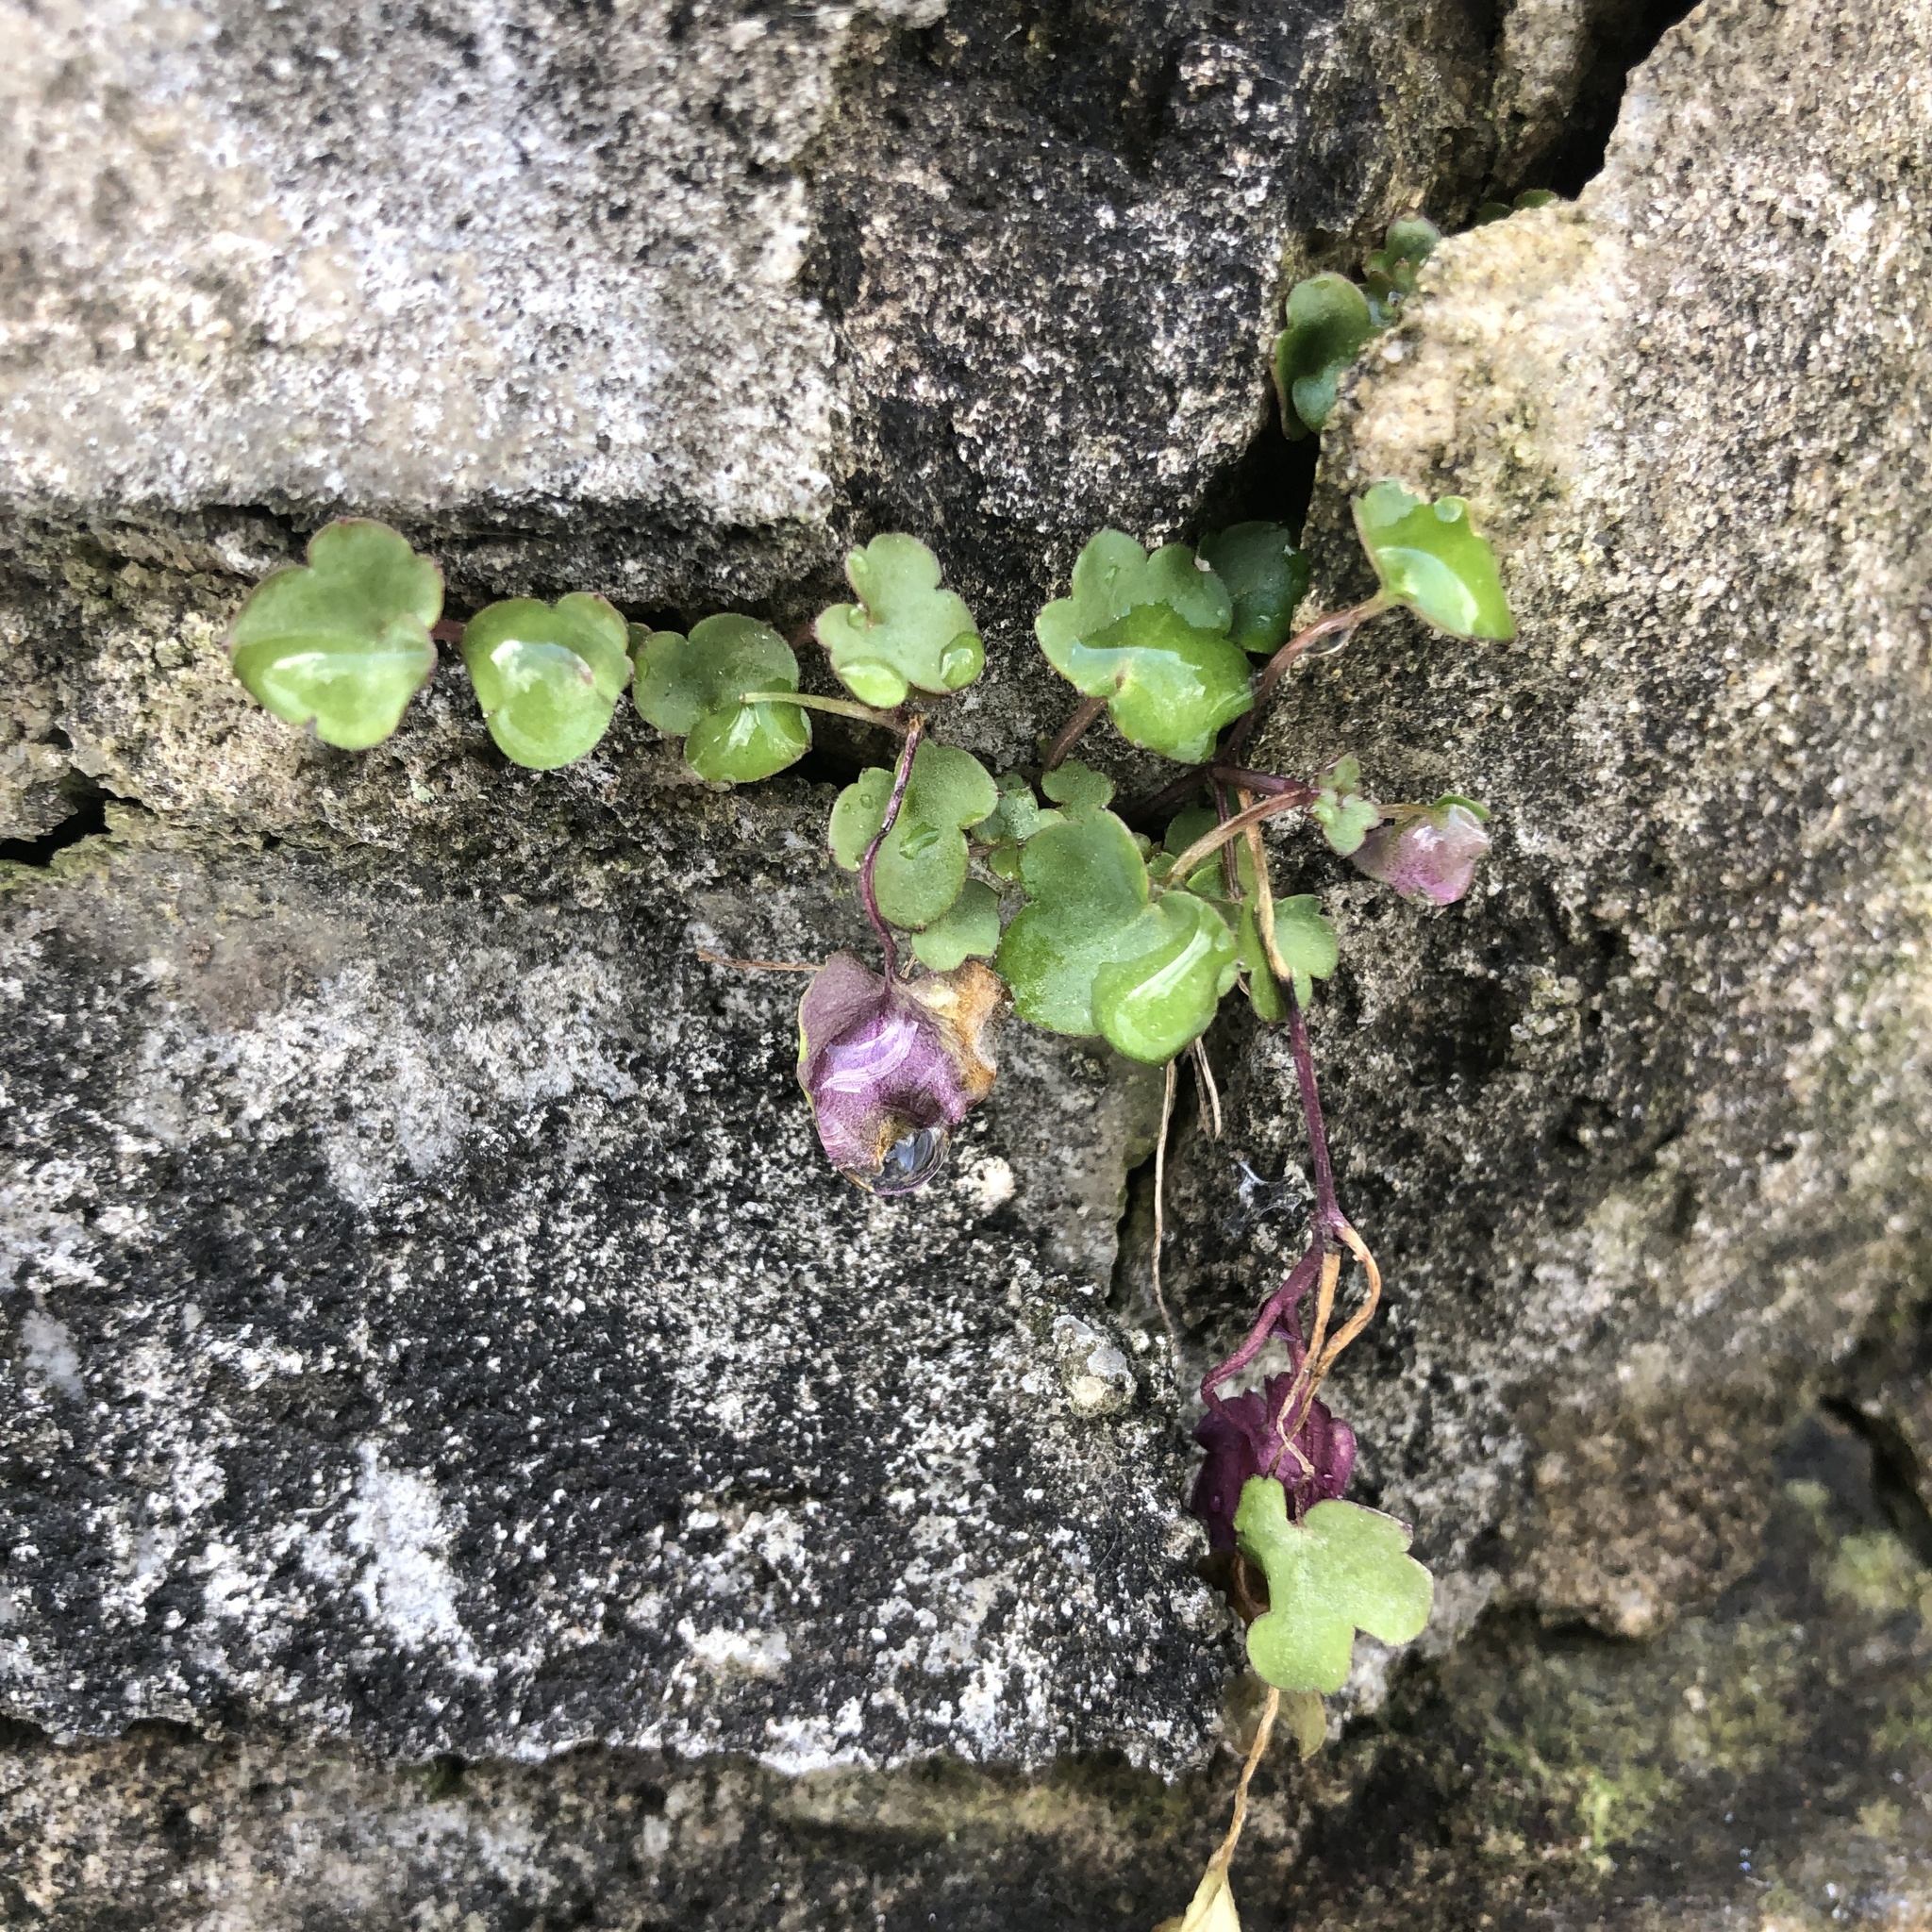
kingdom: Plantae
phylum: Tracheophyta
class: Magnoliopsida
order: Lamiales
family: Plantaginaceae
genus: Cymbalaria
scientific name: Cymbalaria muralis
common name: Ivy-leaved toadflax
